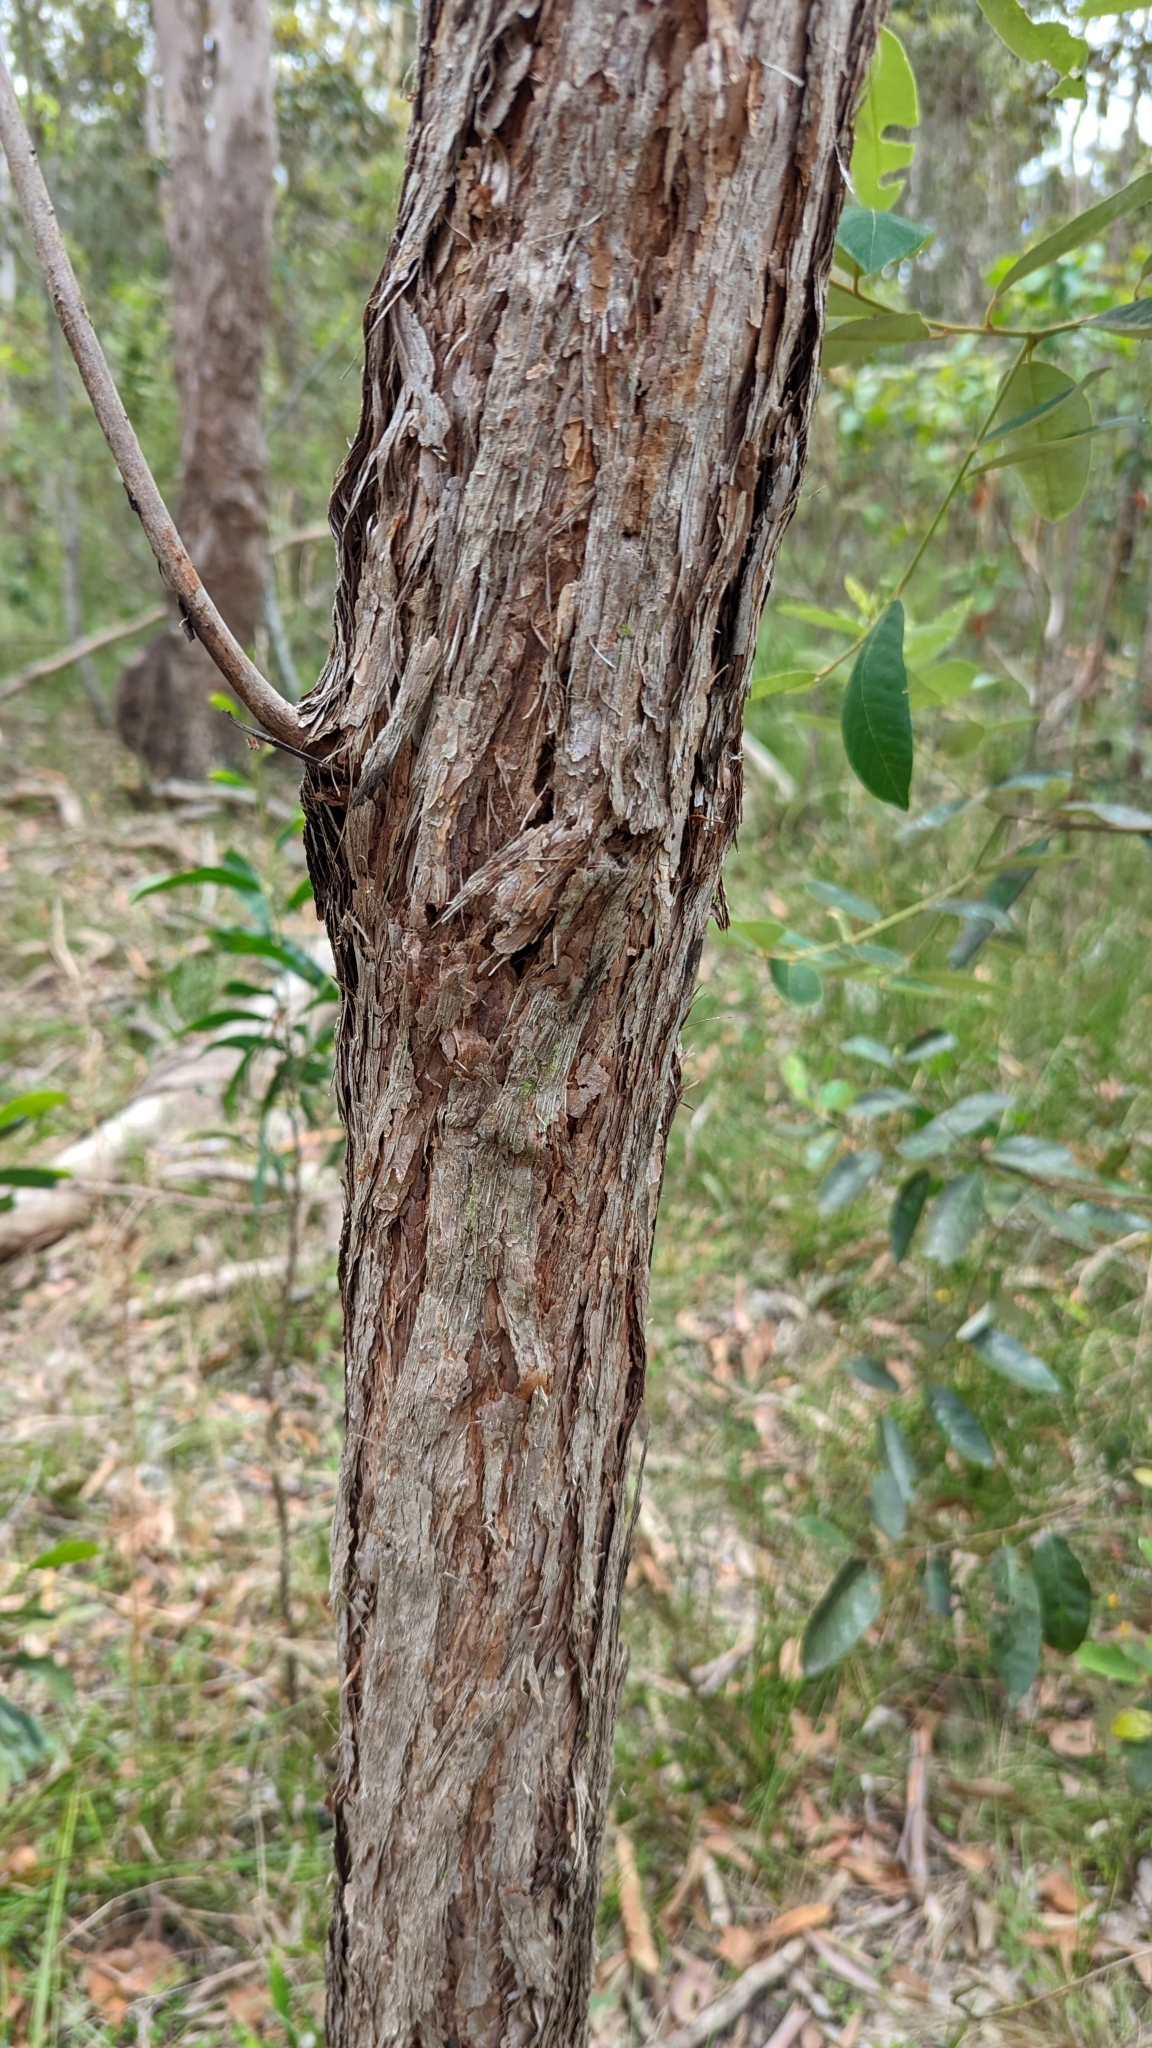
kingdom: Plantae
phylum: Tracheophyta
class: Magnoliopsida
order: Myrtales
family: Myrtaceae
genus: Lophostemon
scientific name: Lophostemon suaveolens
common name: Paperbark-mahogany
